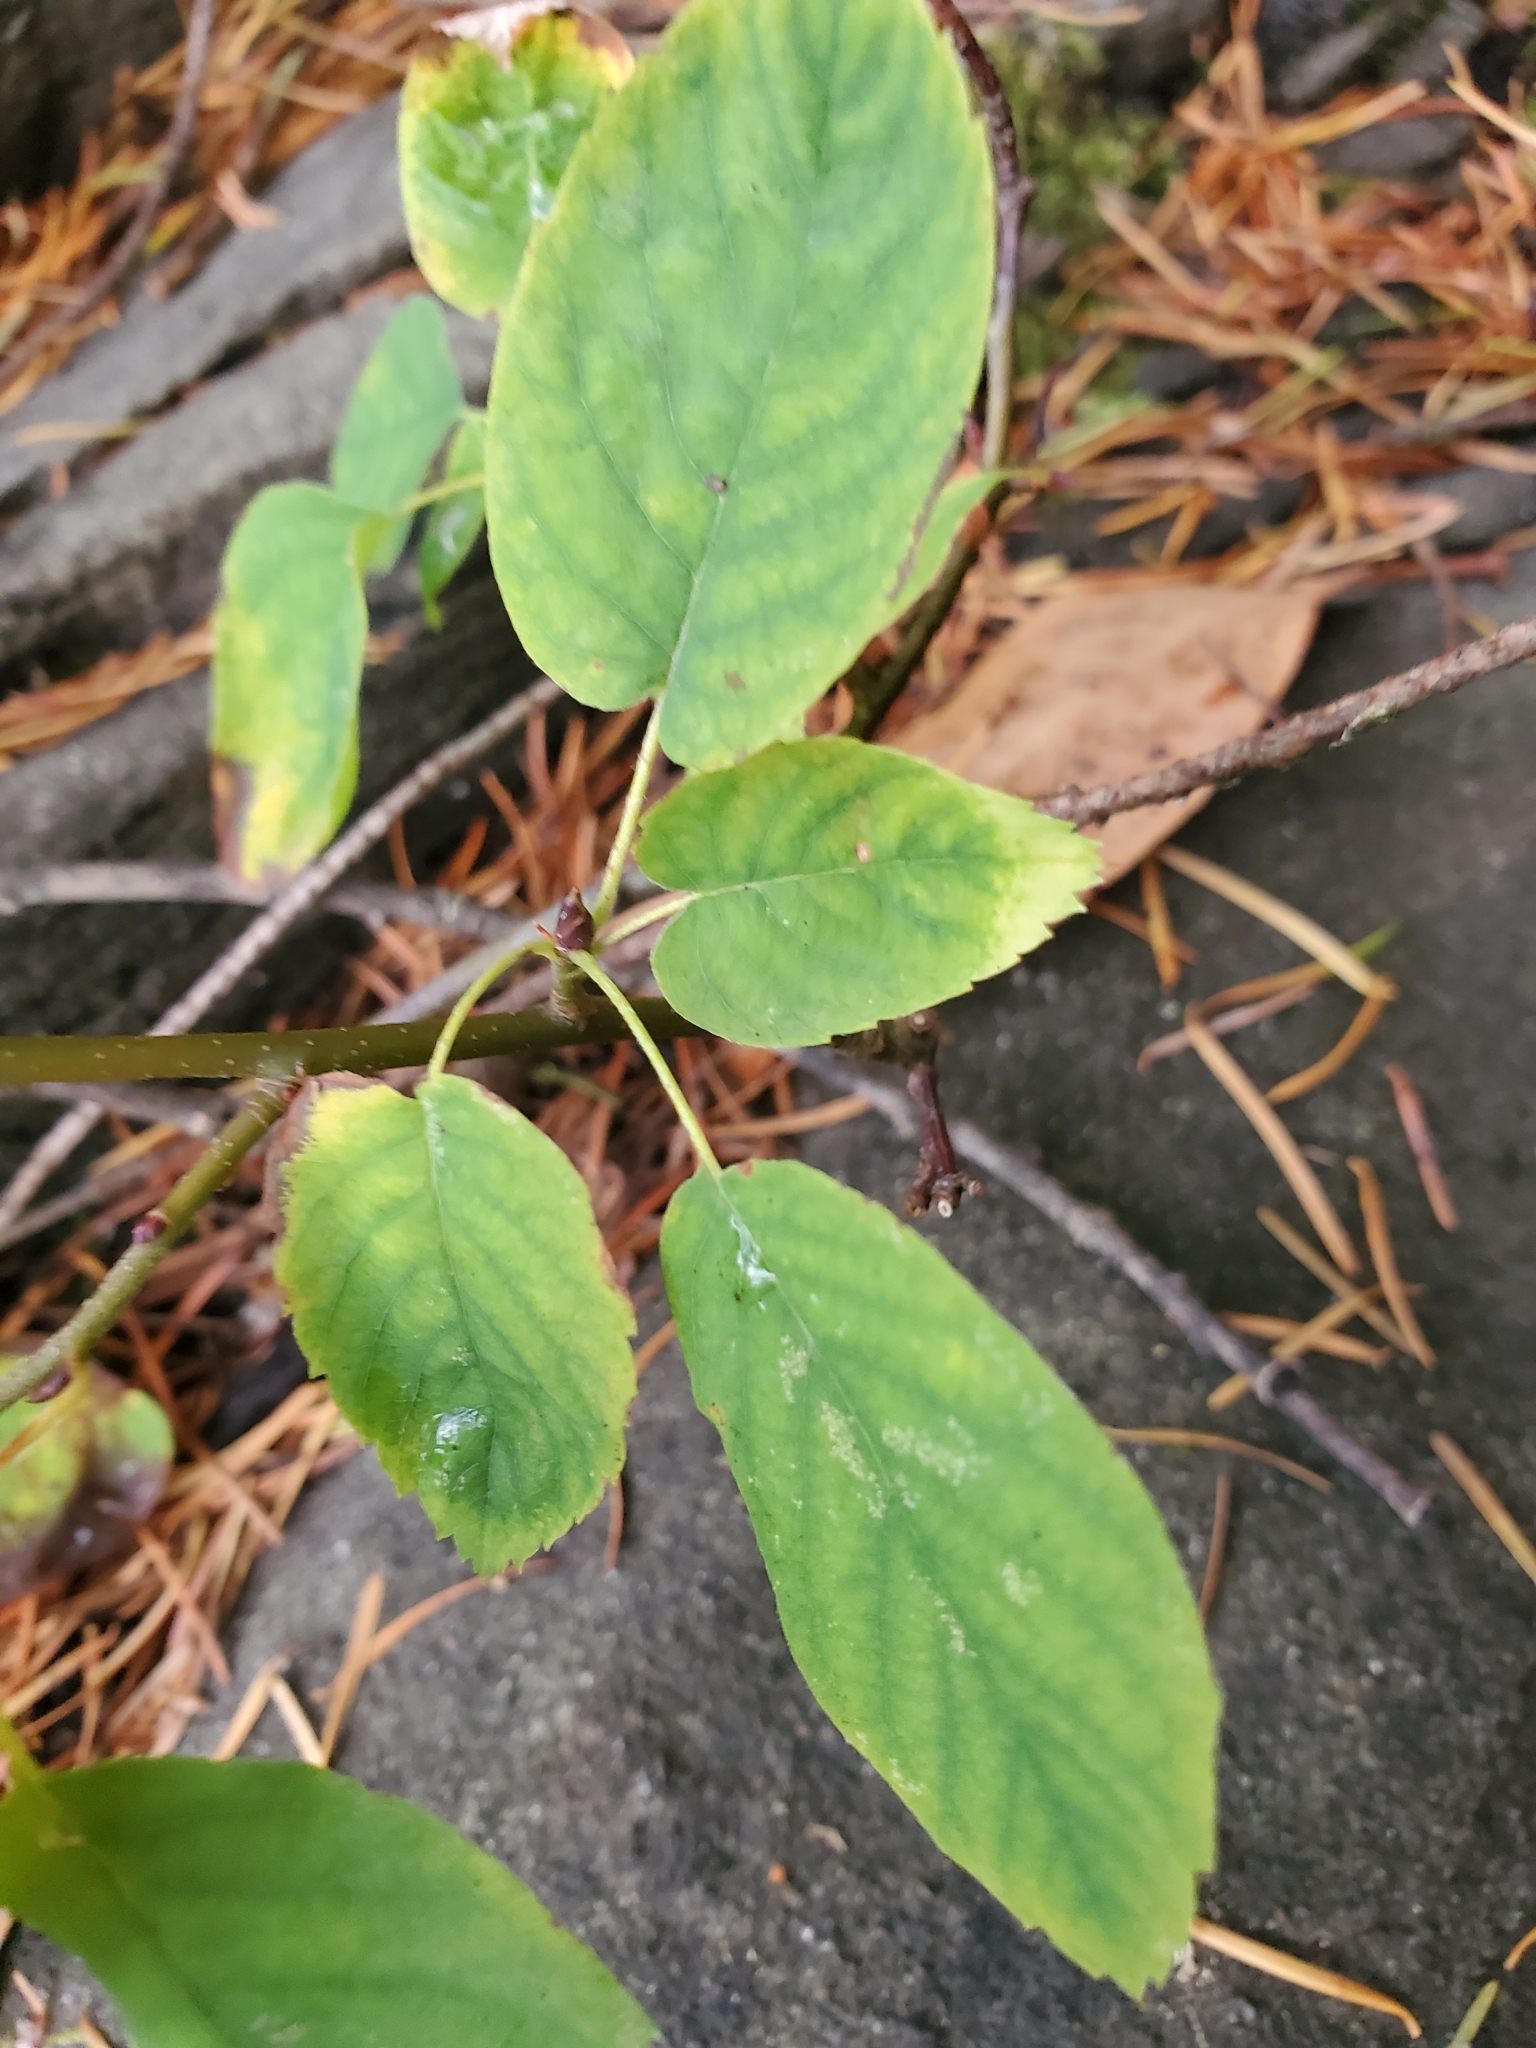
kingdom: Plantae
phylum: Tracheophyta
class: Magnoliopsida
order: Rosales
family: Rosaceae
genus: Amelanchier
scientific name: Amelanchier alnifolia
